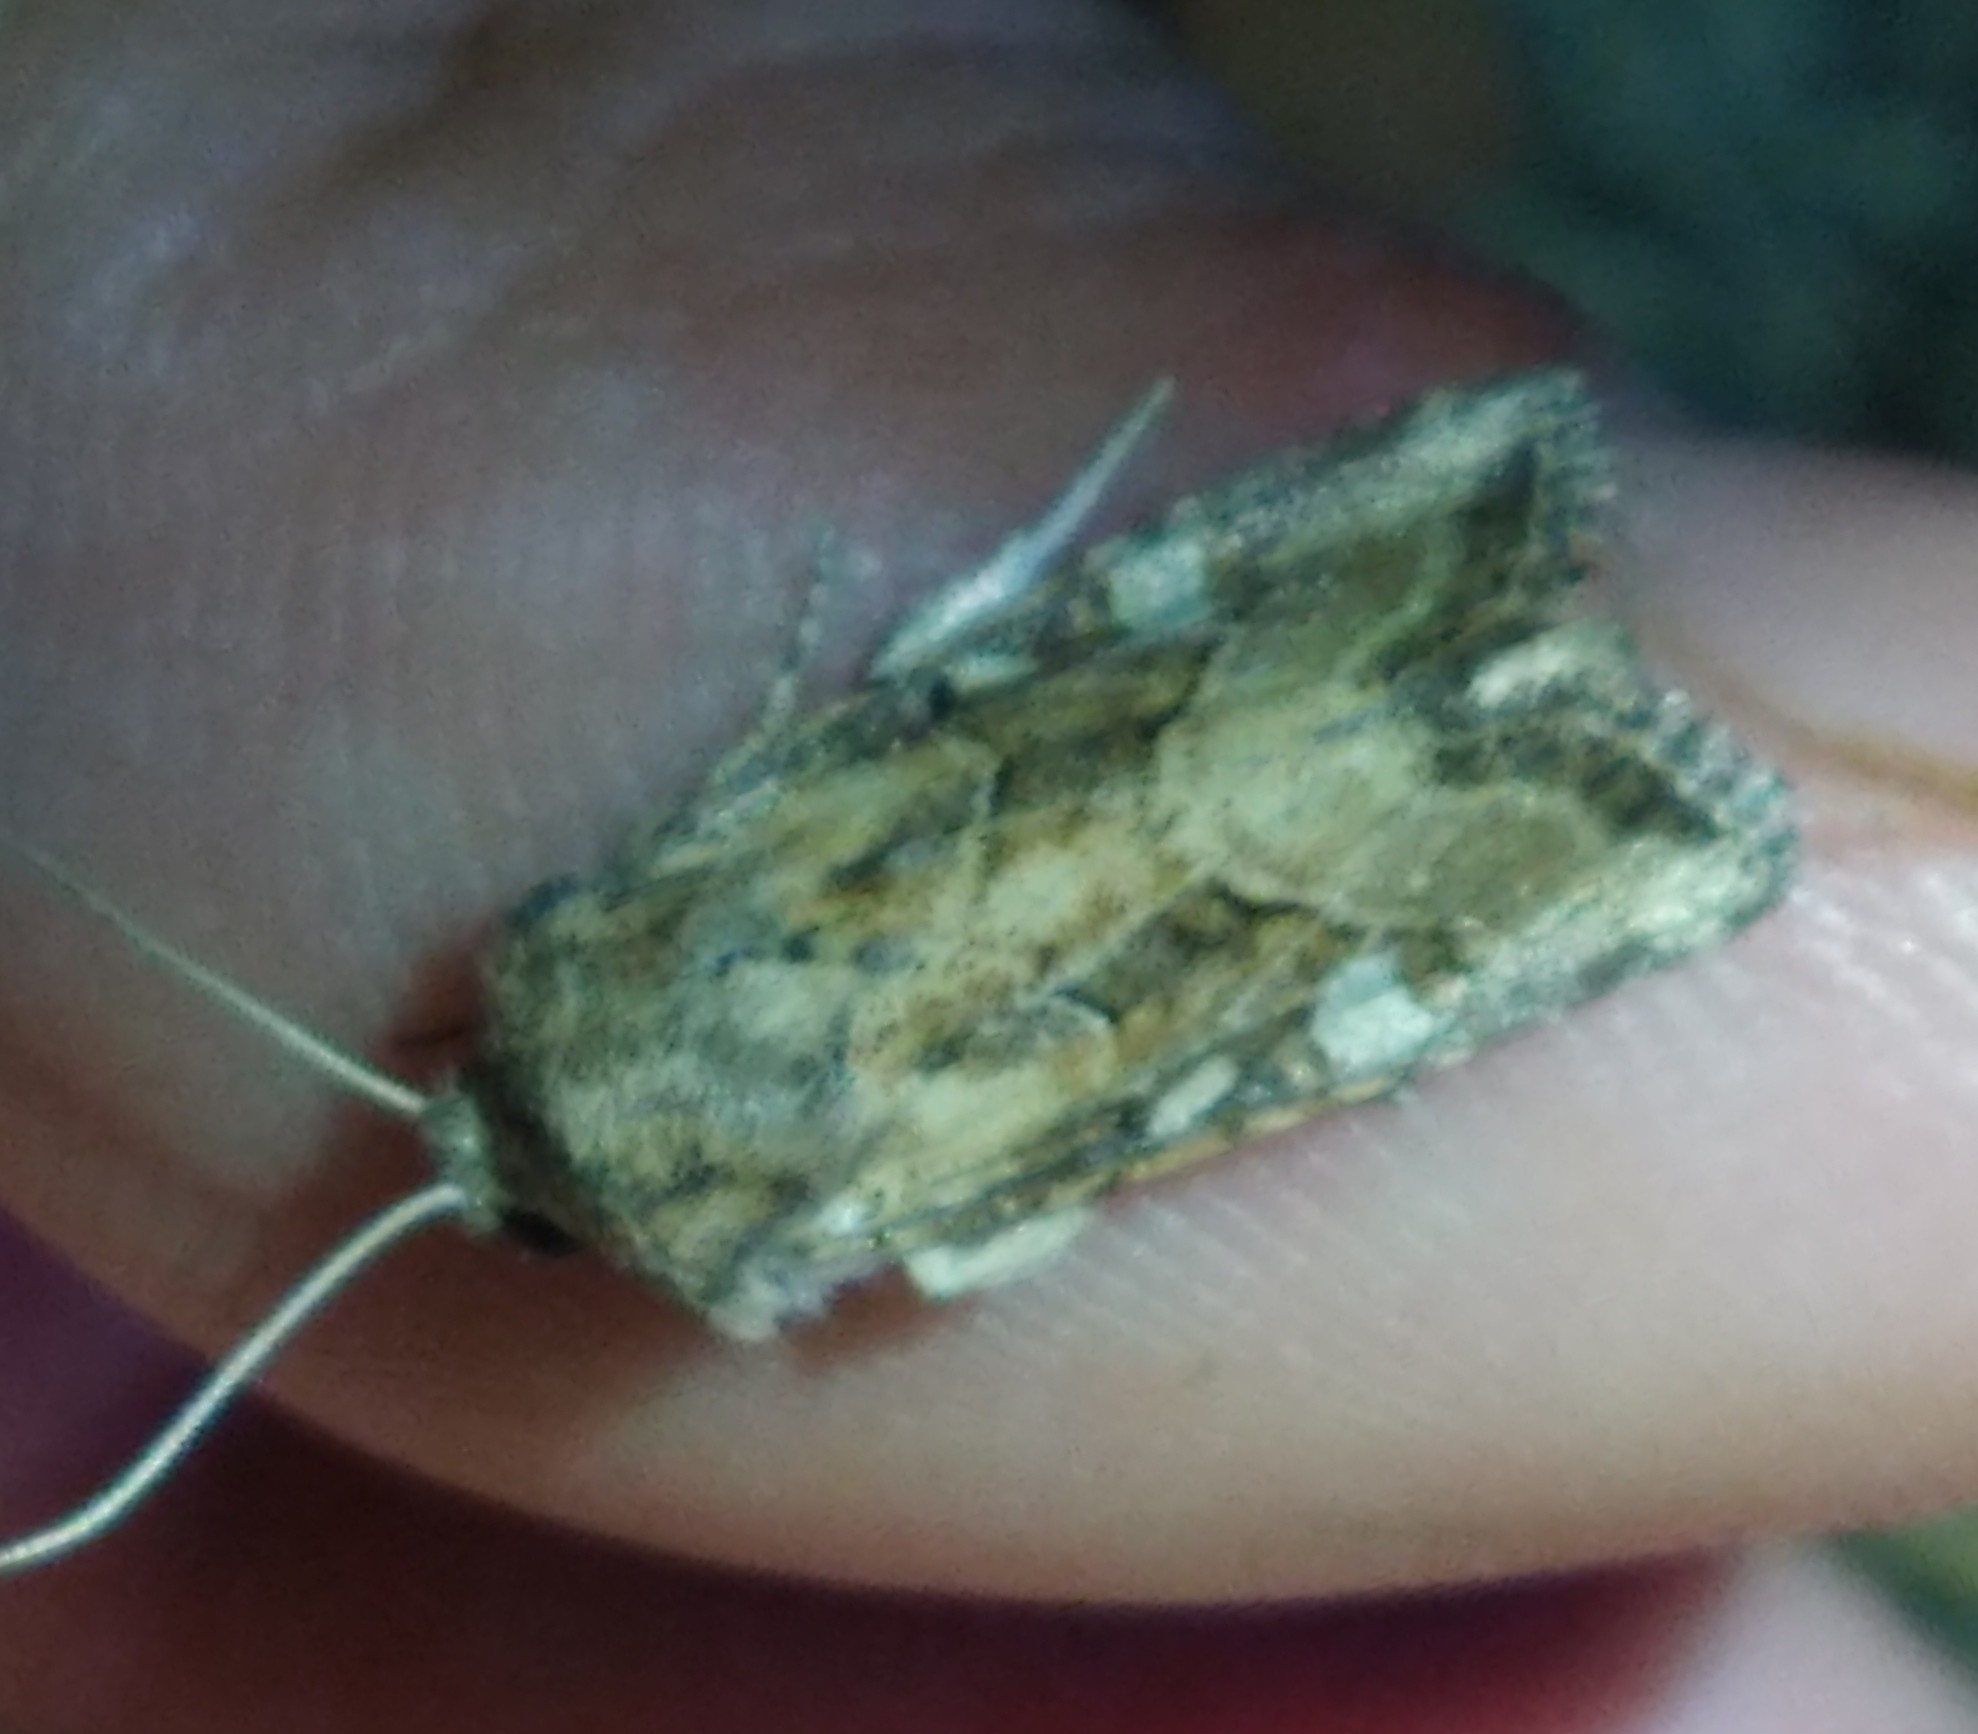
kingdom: Animalia
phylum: Arthropoda
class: Insecta
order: Lepidoptera
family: Noctuidae
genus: Luperina
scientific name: Luperina dumerilii
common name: Dumeril's rustic
